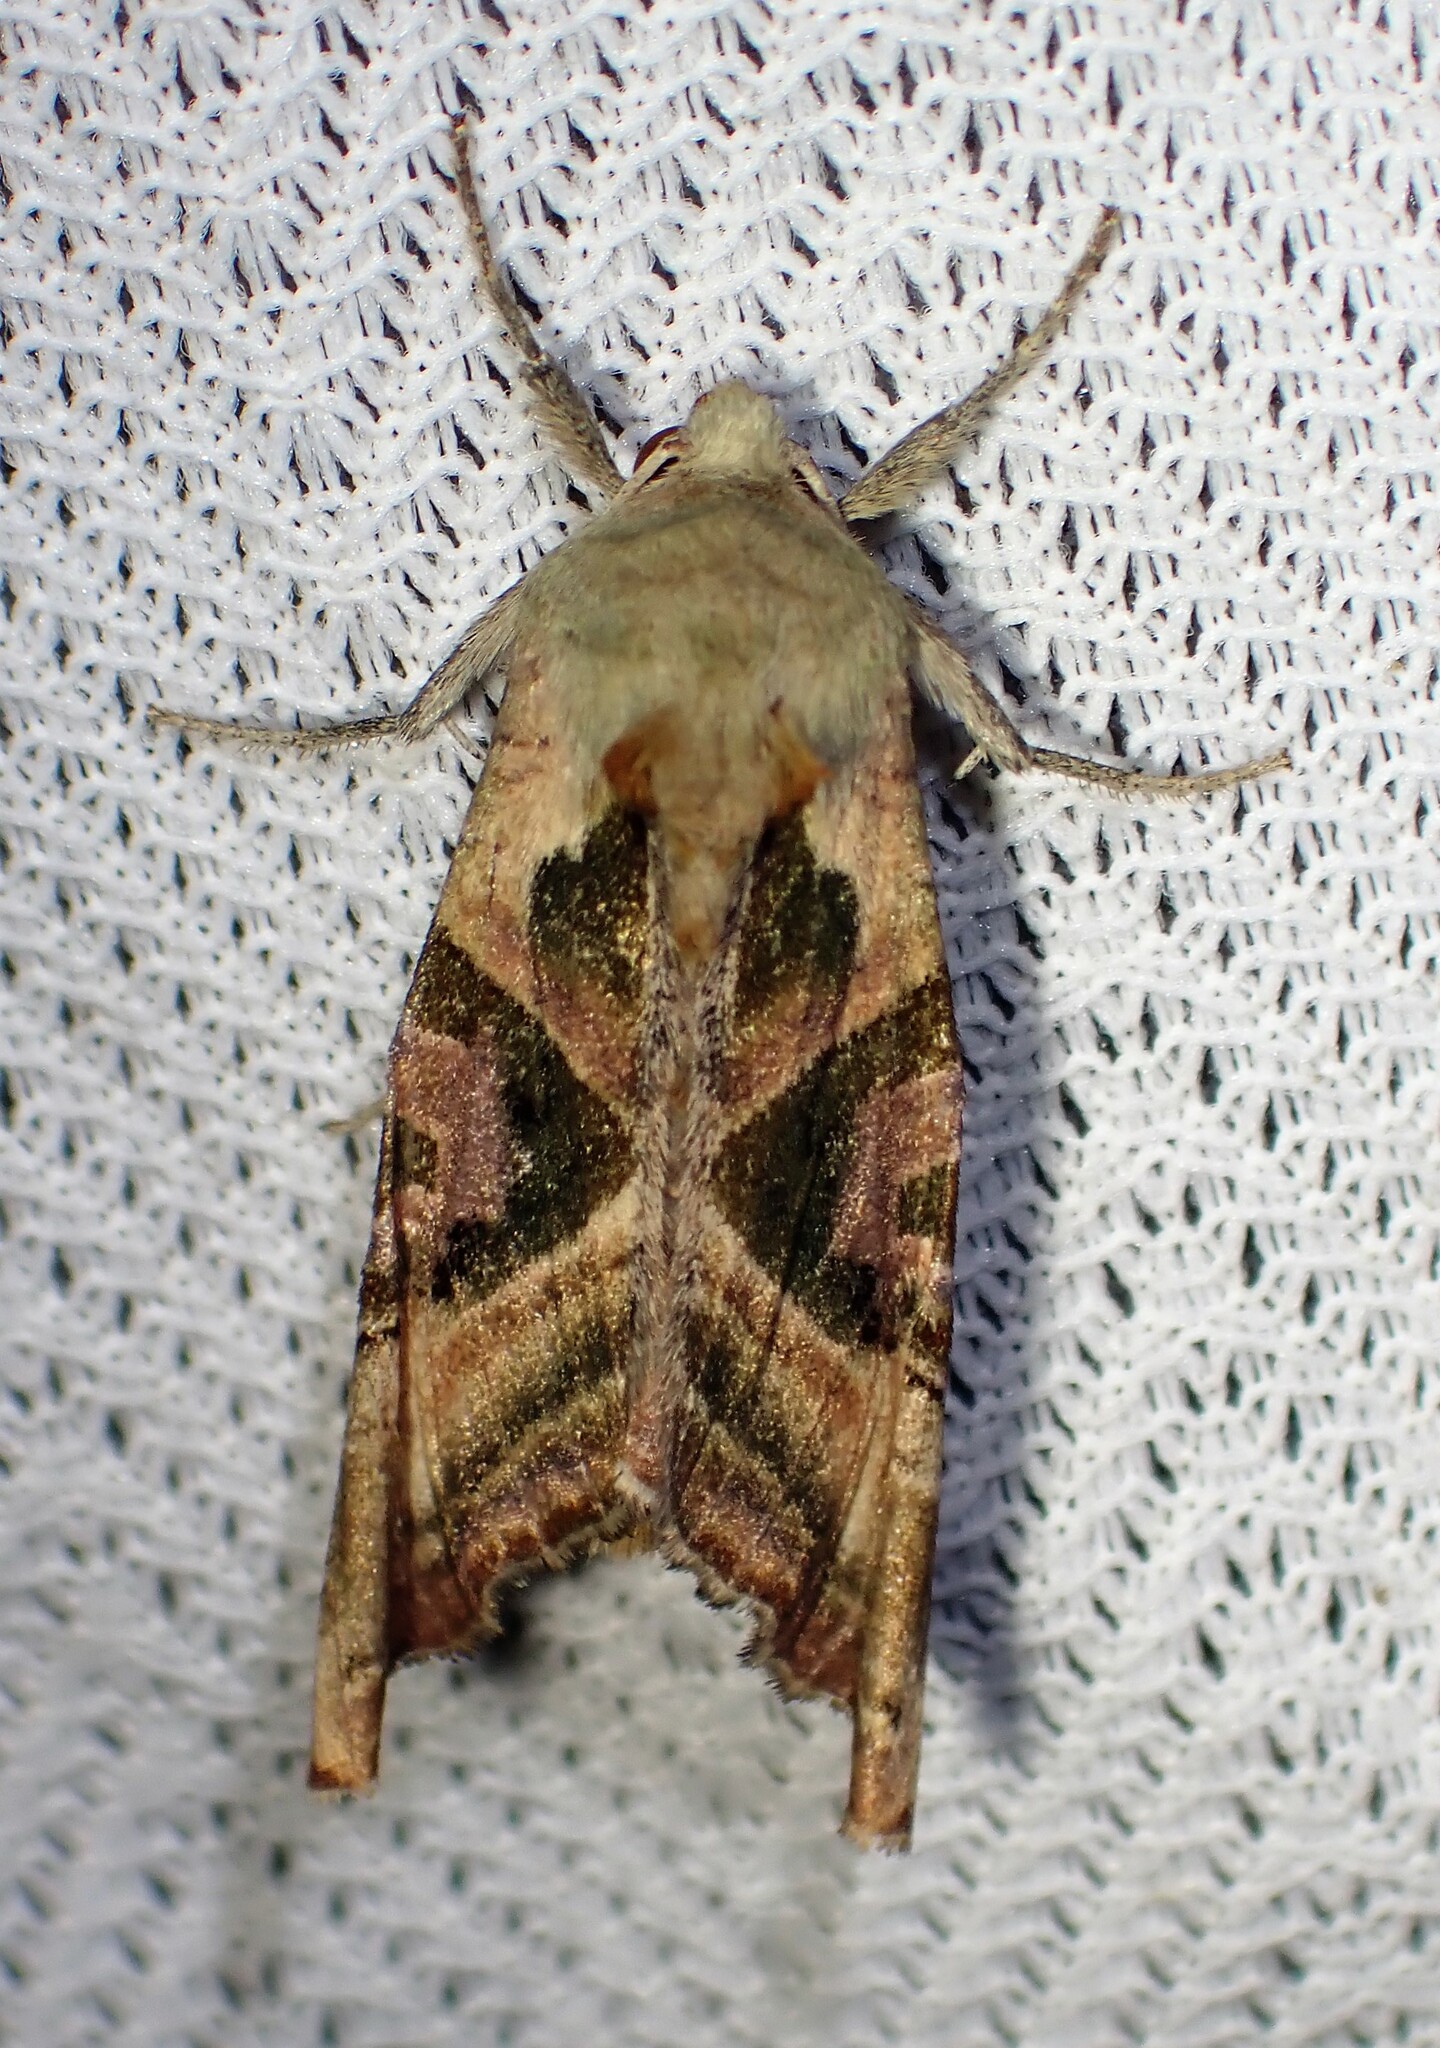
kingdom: Animalia
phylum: Arthropoda
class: Insecta
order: Lepidoptera
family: Noctuidae
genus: Phlogophora
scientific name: Phlogophora iris
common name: Olive angle shades
